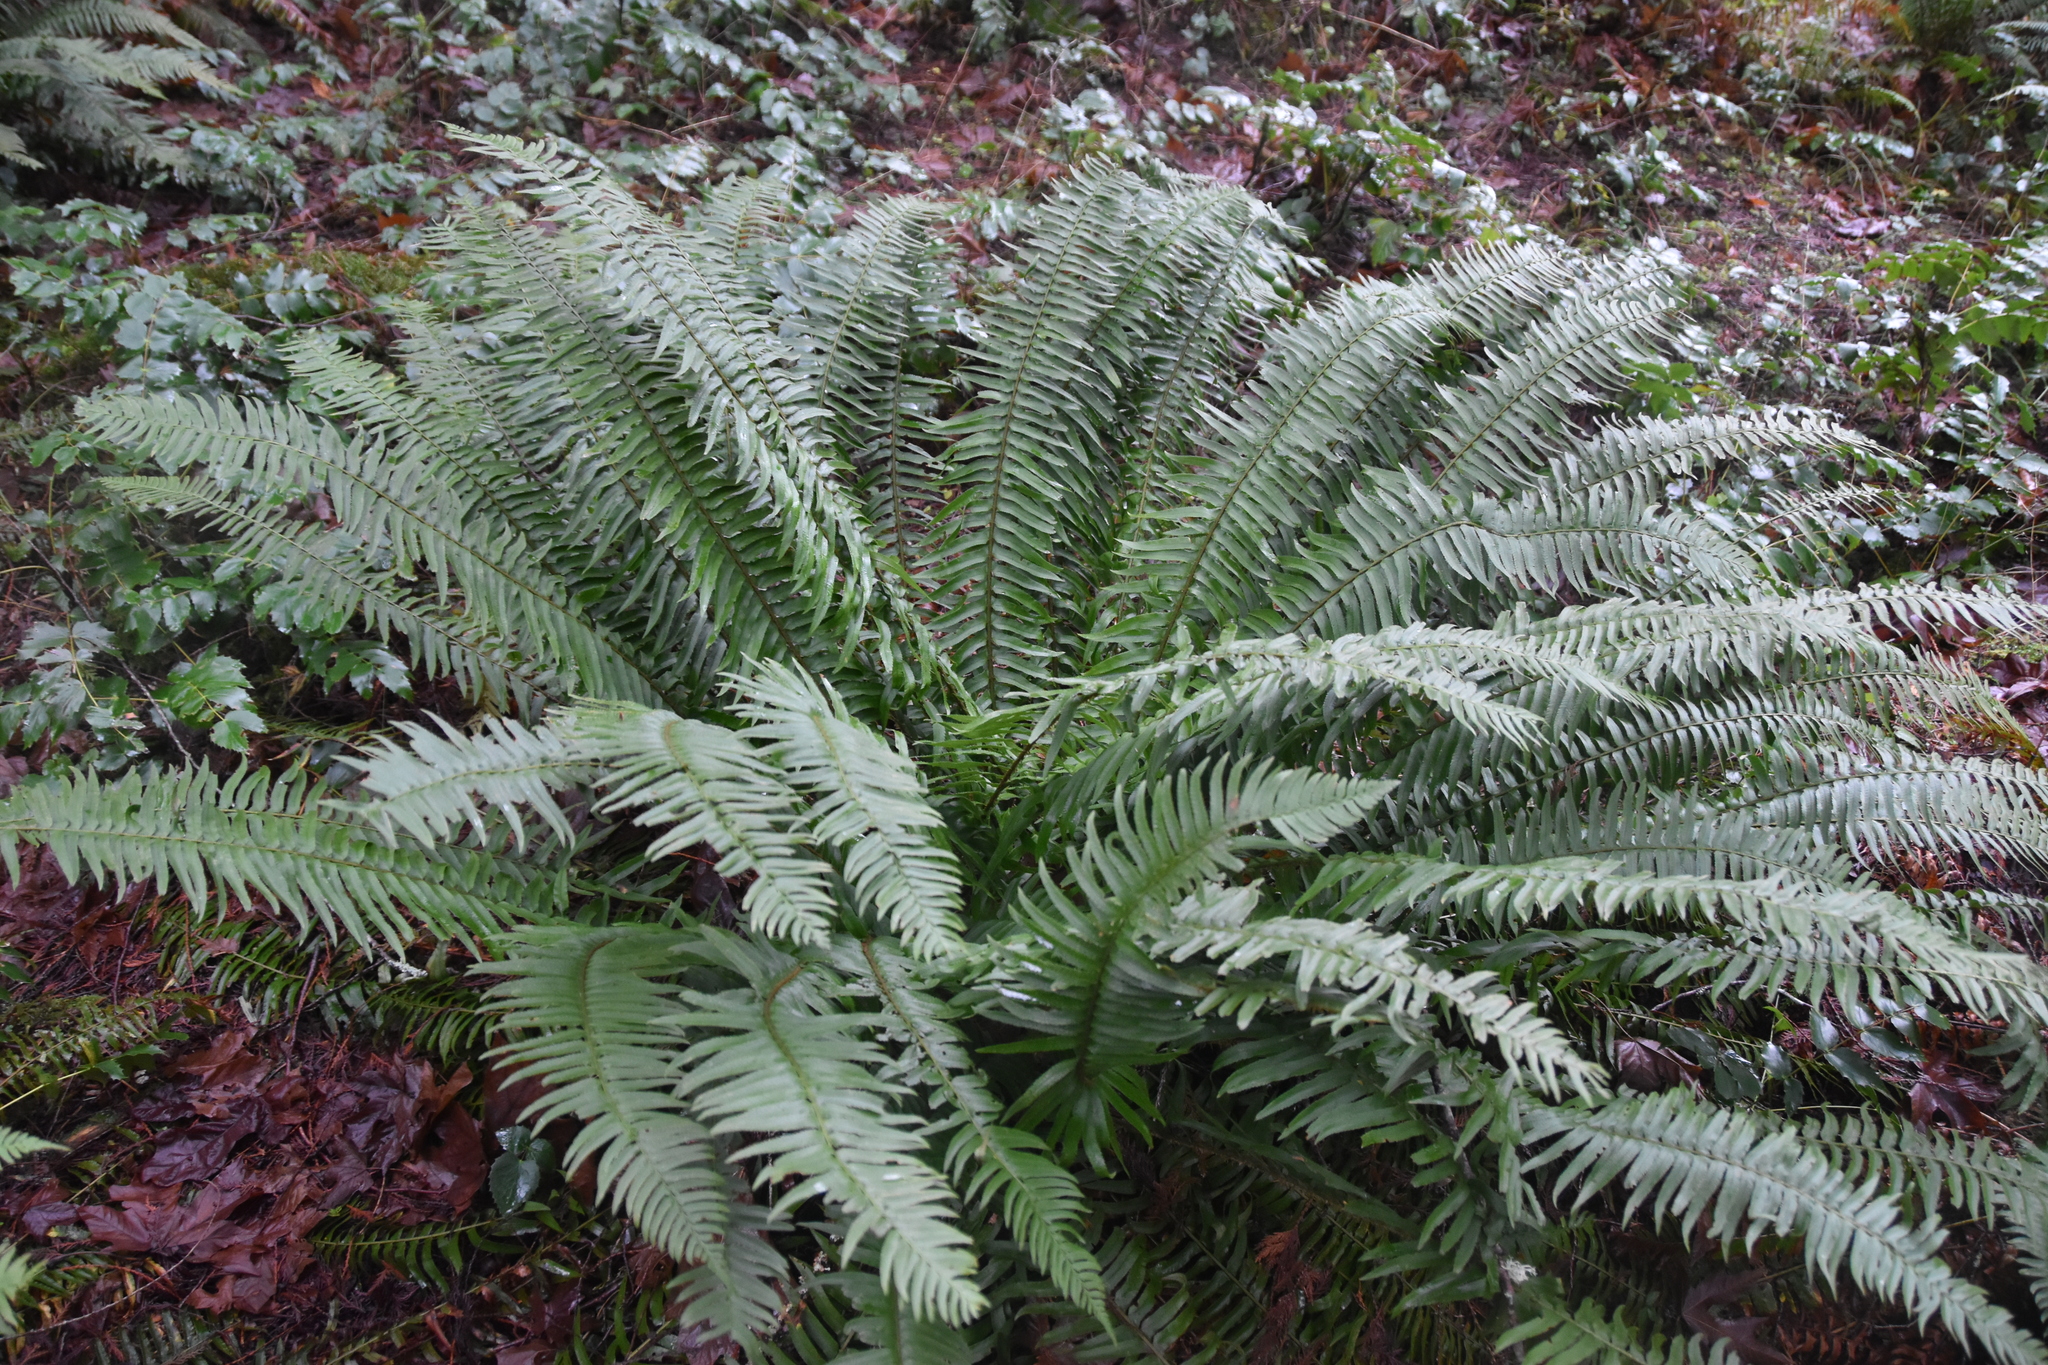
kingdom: Plantae
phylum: Tracheophyta
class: Polypodiopsida
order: Polypodiales
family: Dryopteridaceae
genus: Polystichum
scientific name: Polystichum munitum
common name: Western sword-fern
